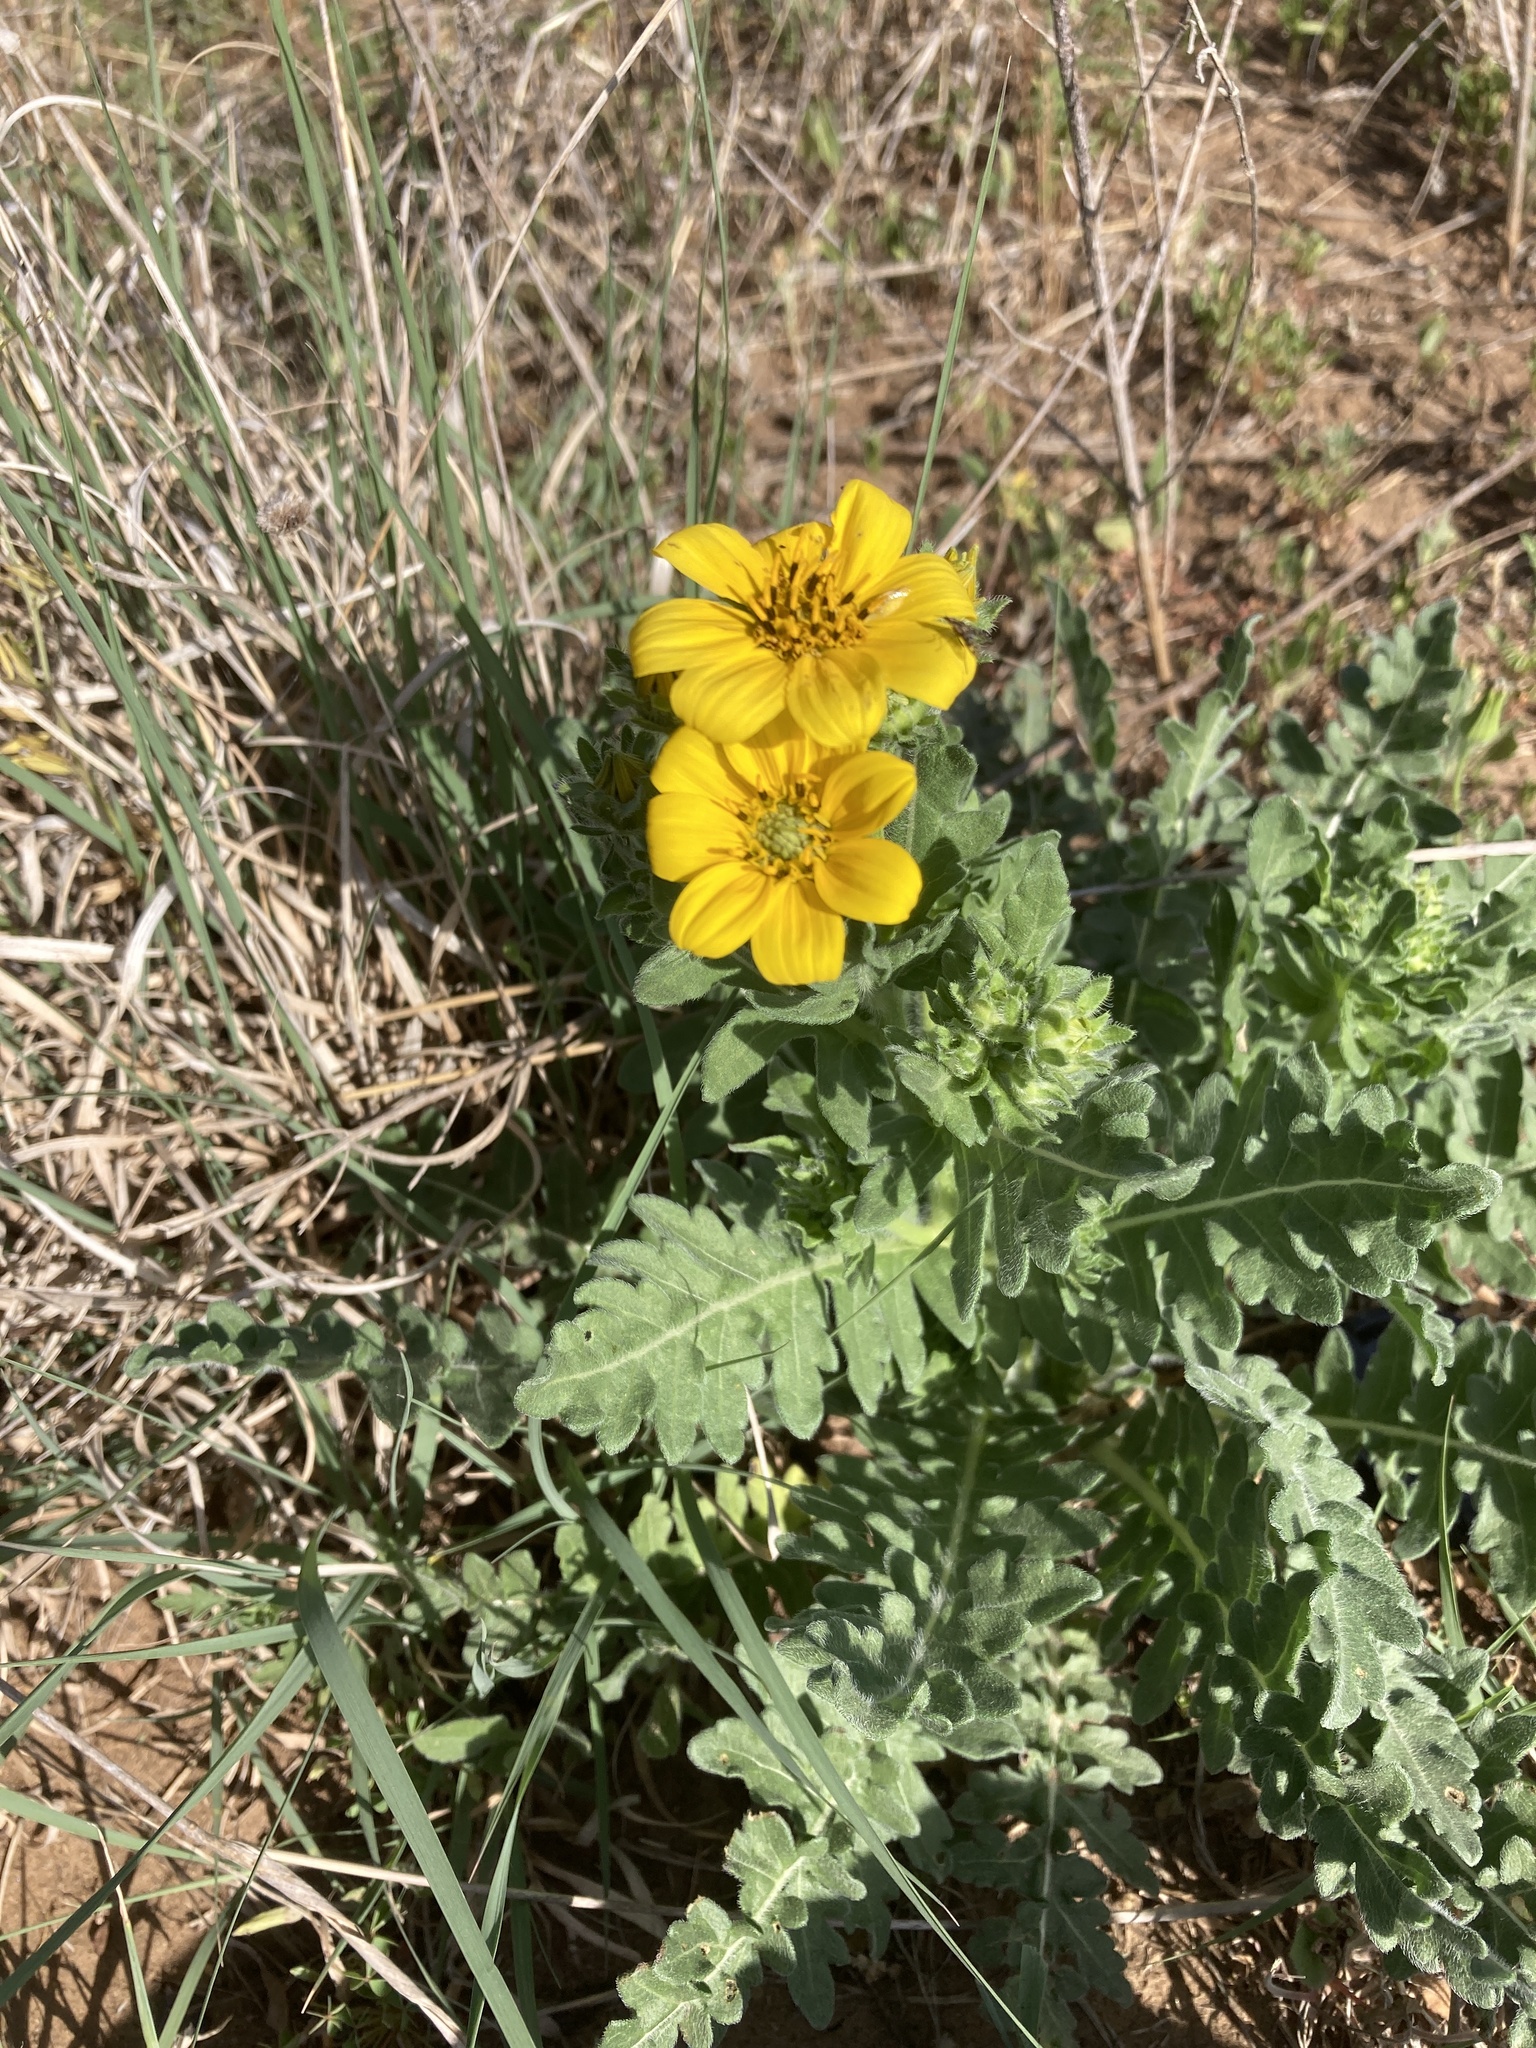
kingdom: Plantae
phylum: Tracheophyta
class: Magnoliopsida
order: Asterales
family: Asteraceae
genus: Engelmannia
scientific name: Engelmannia peristenia
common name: Engelmann's daisy
